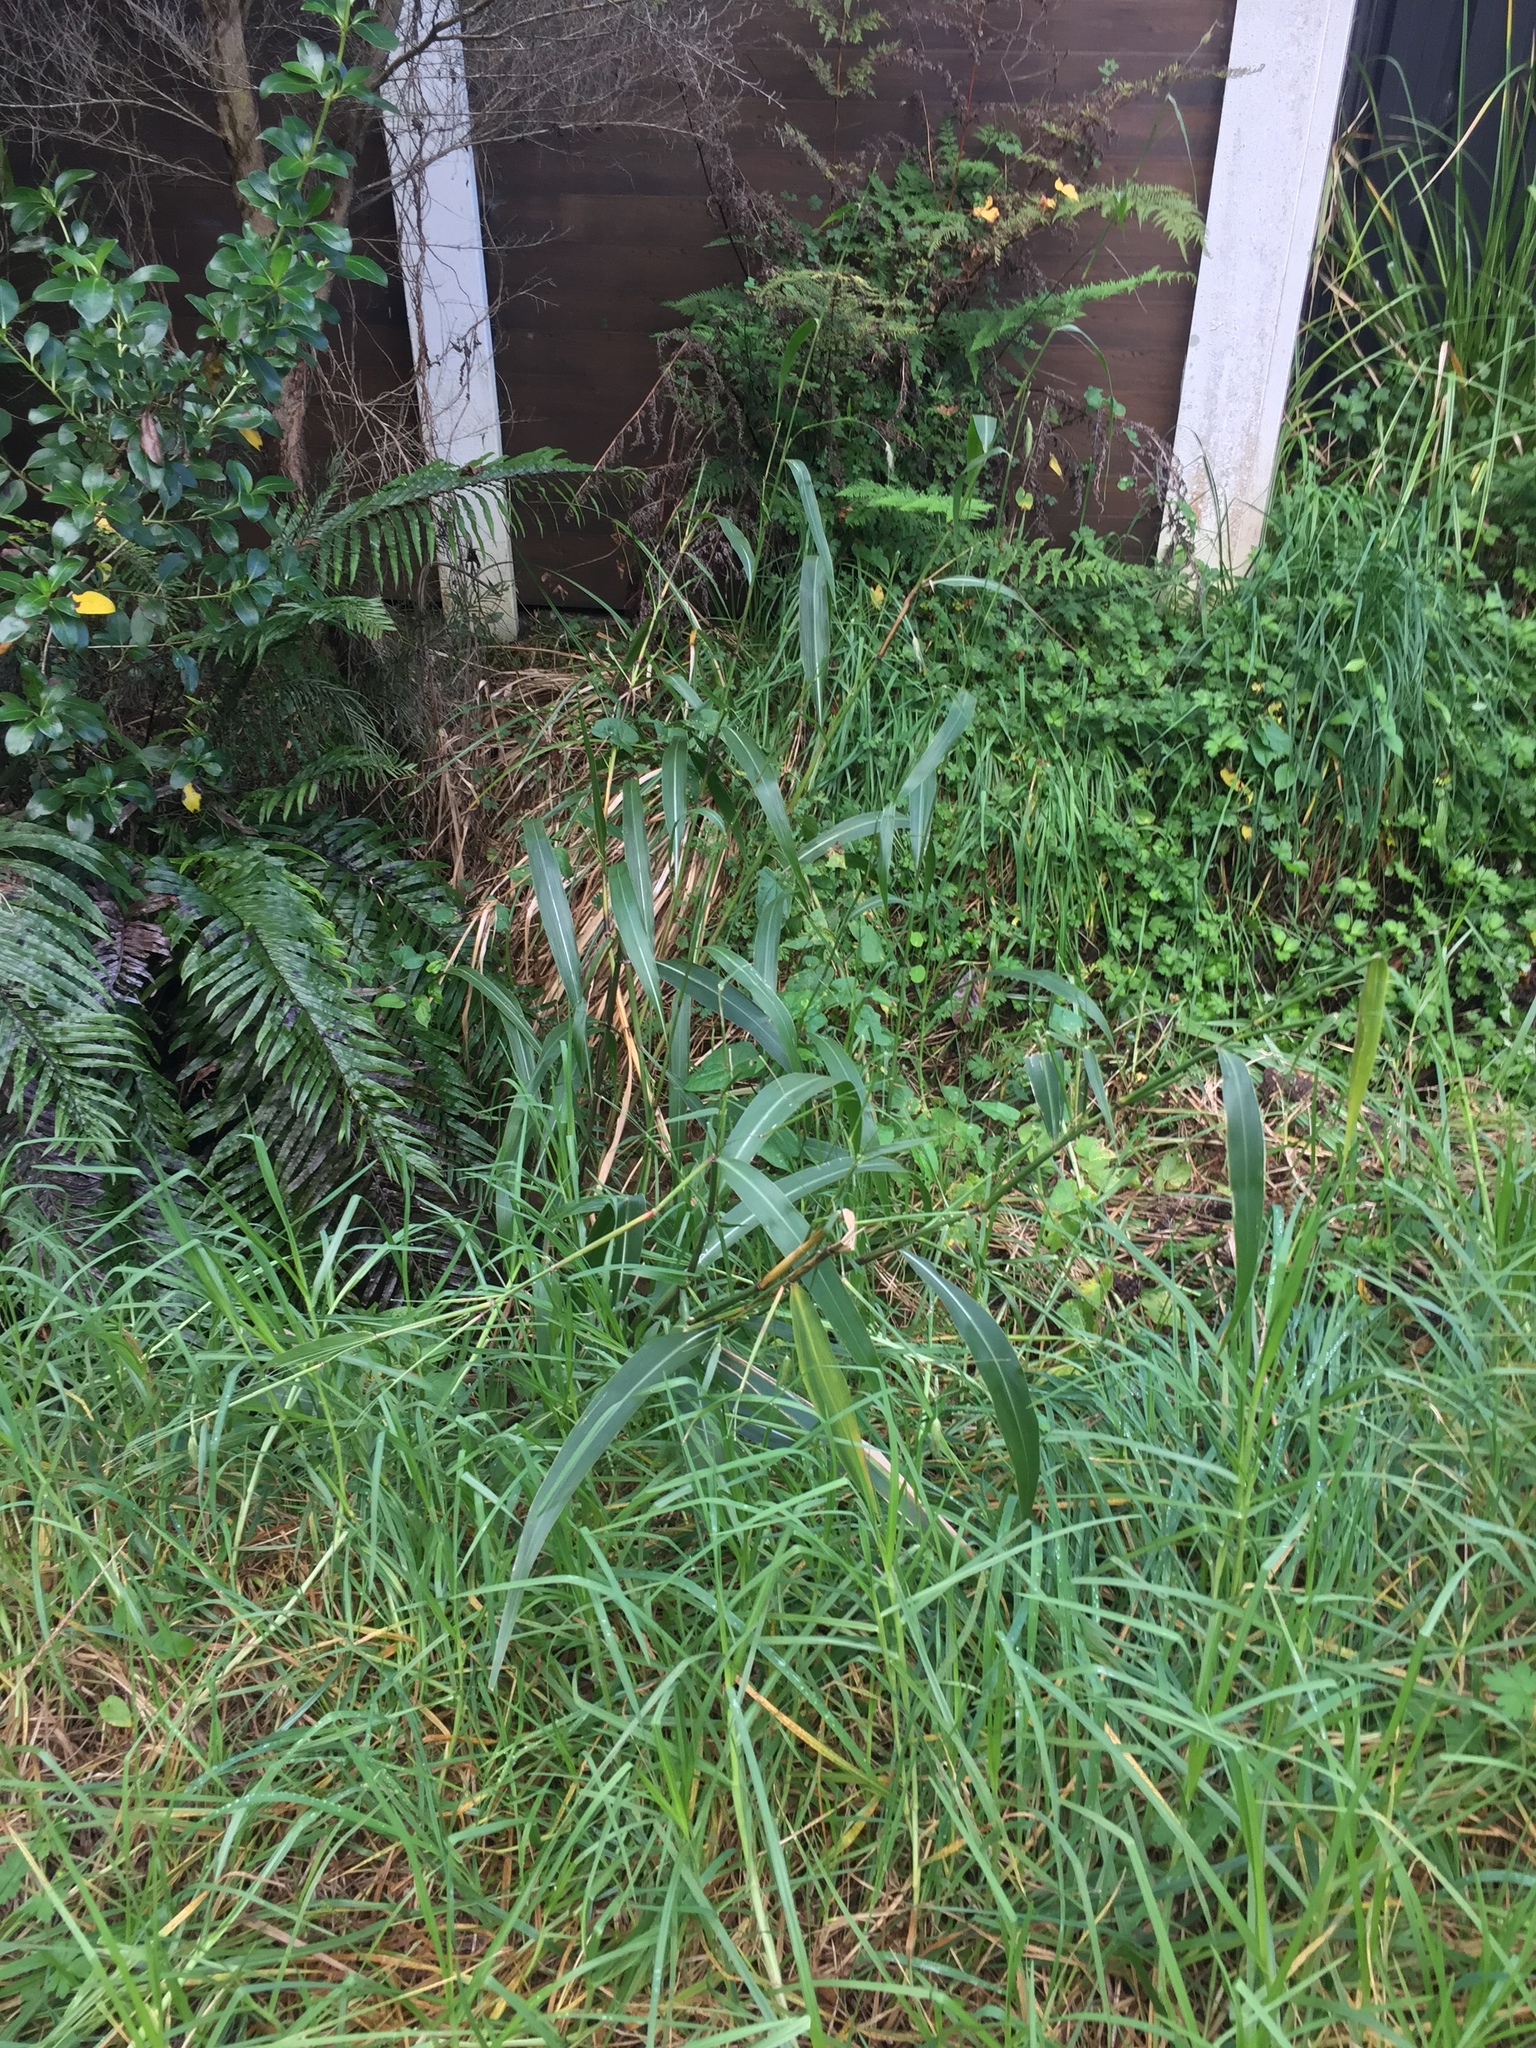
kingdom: Plantae
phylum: Tracheophyta
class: Liliopsida
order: Poales
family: Poaceae
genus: Cenchrus
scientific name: Cenchrus latifolius
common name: Sandbur
